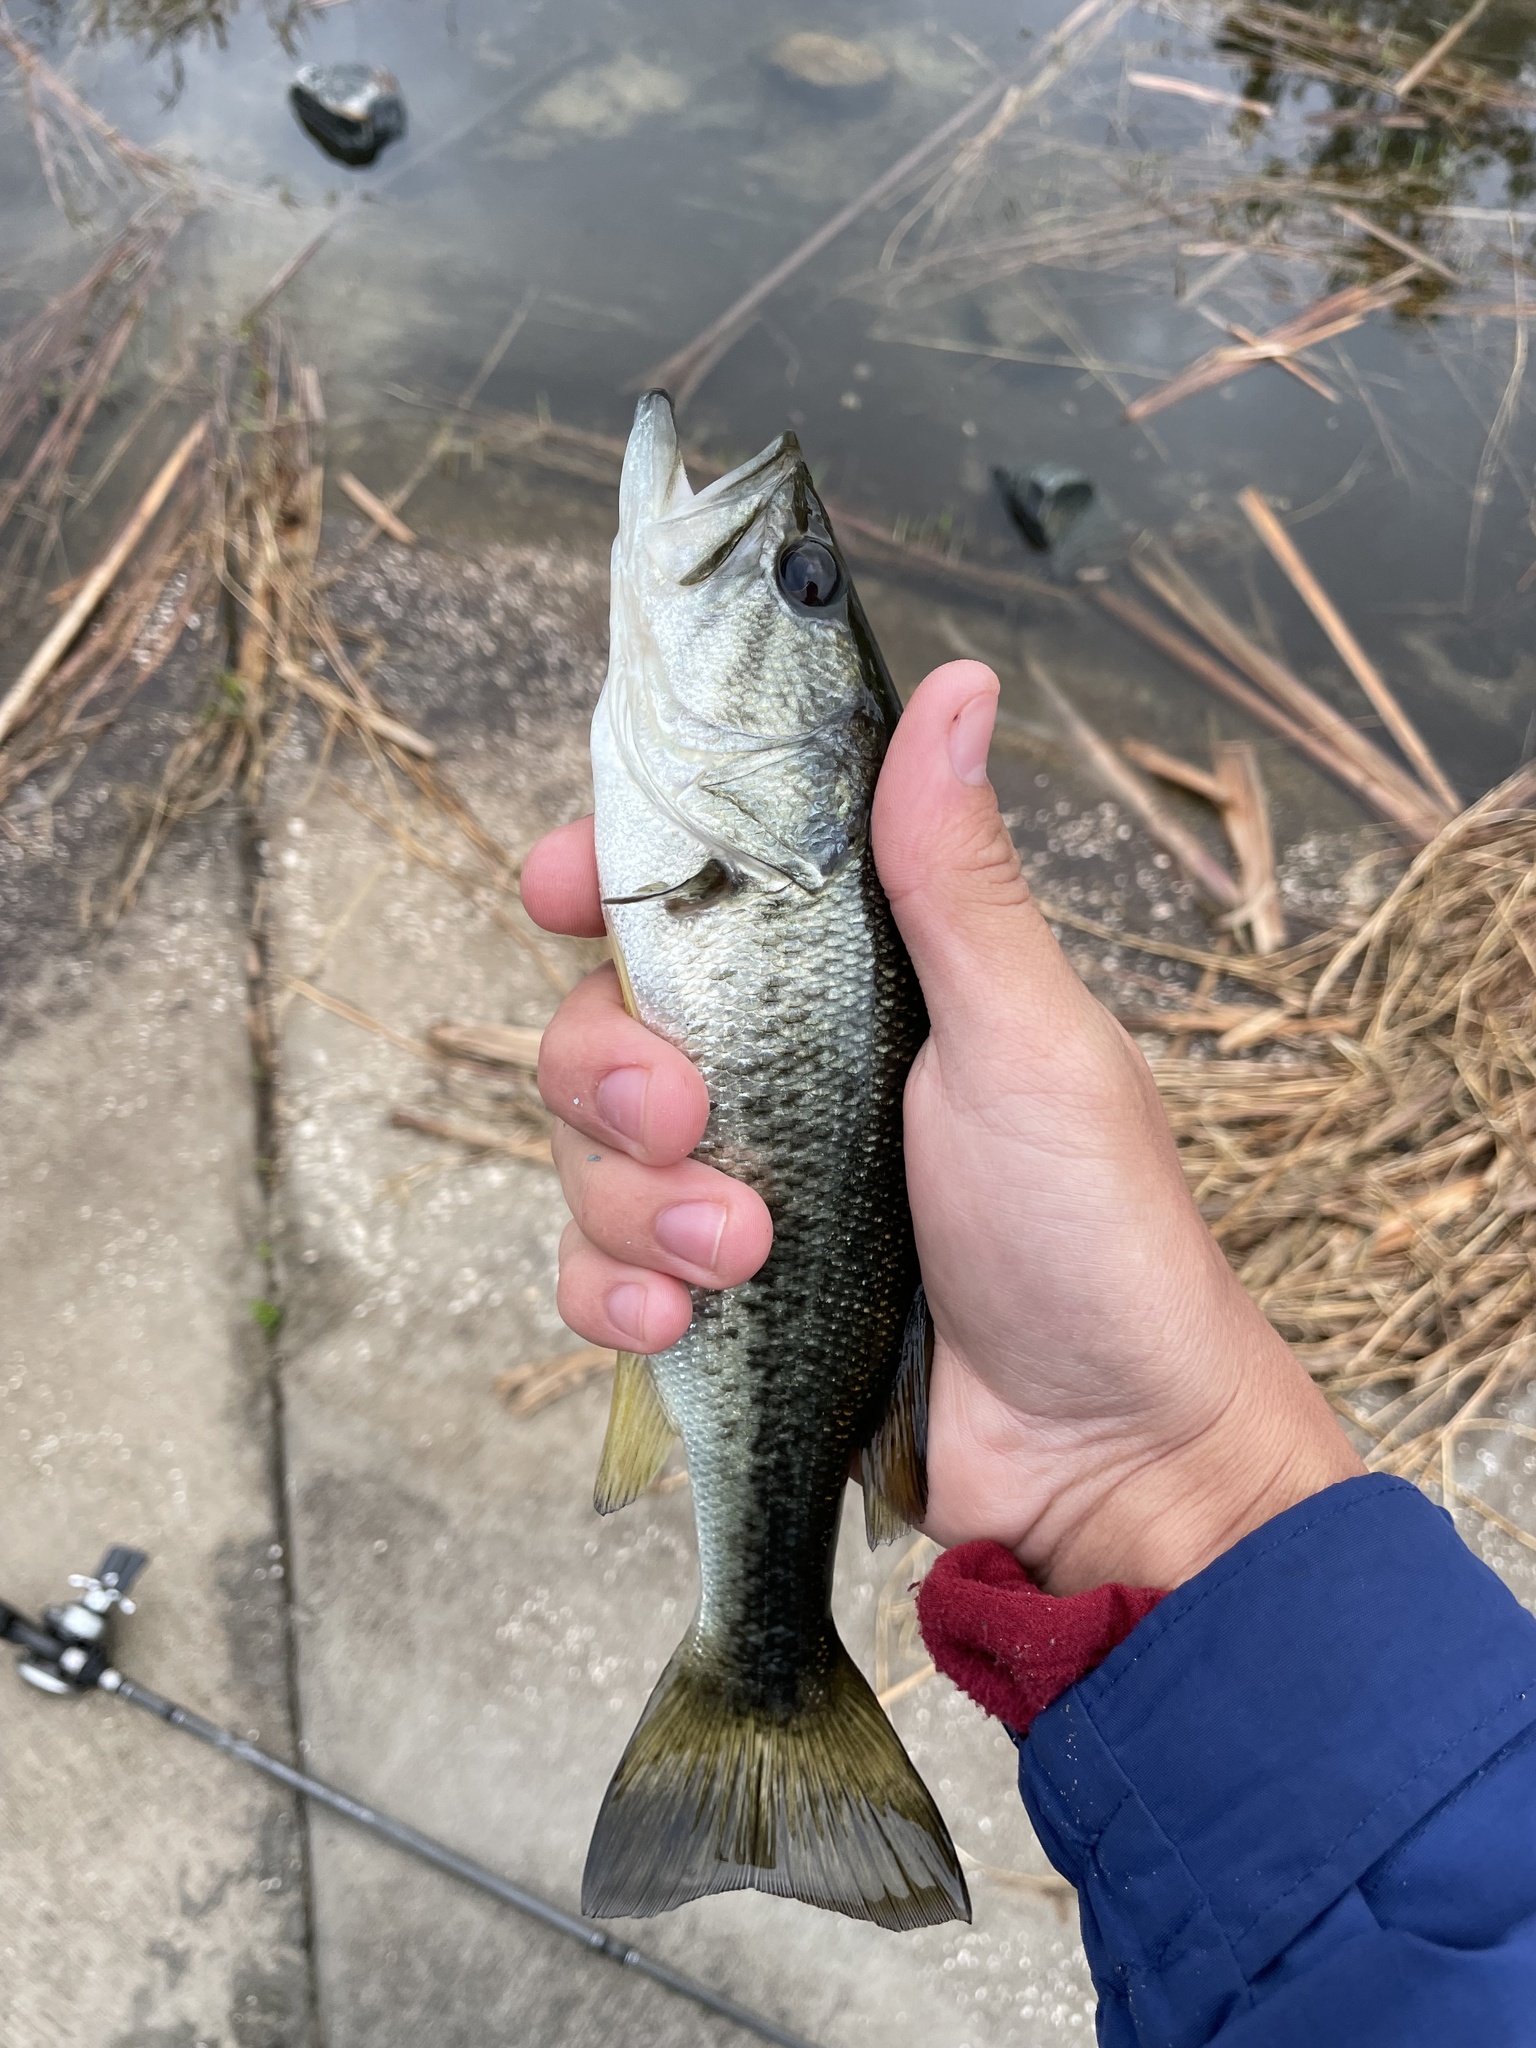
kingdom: Animalia
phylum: Chordata
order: Perciformes
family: Centrarchidae
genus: Micropterus
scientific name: Micropterus salmoides
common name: Largemouth bass
